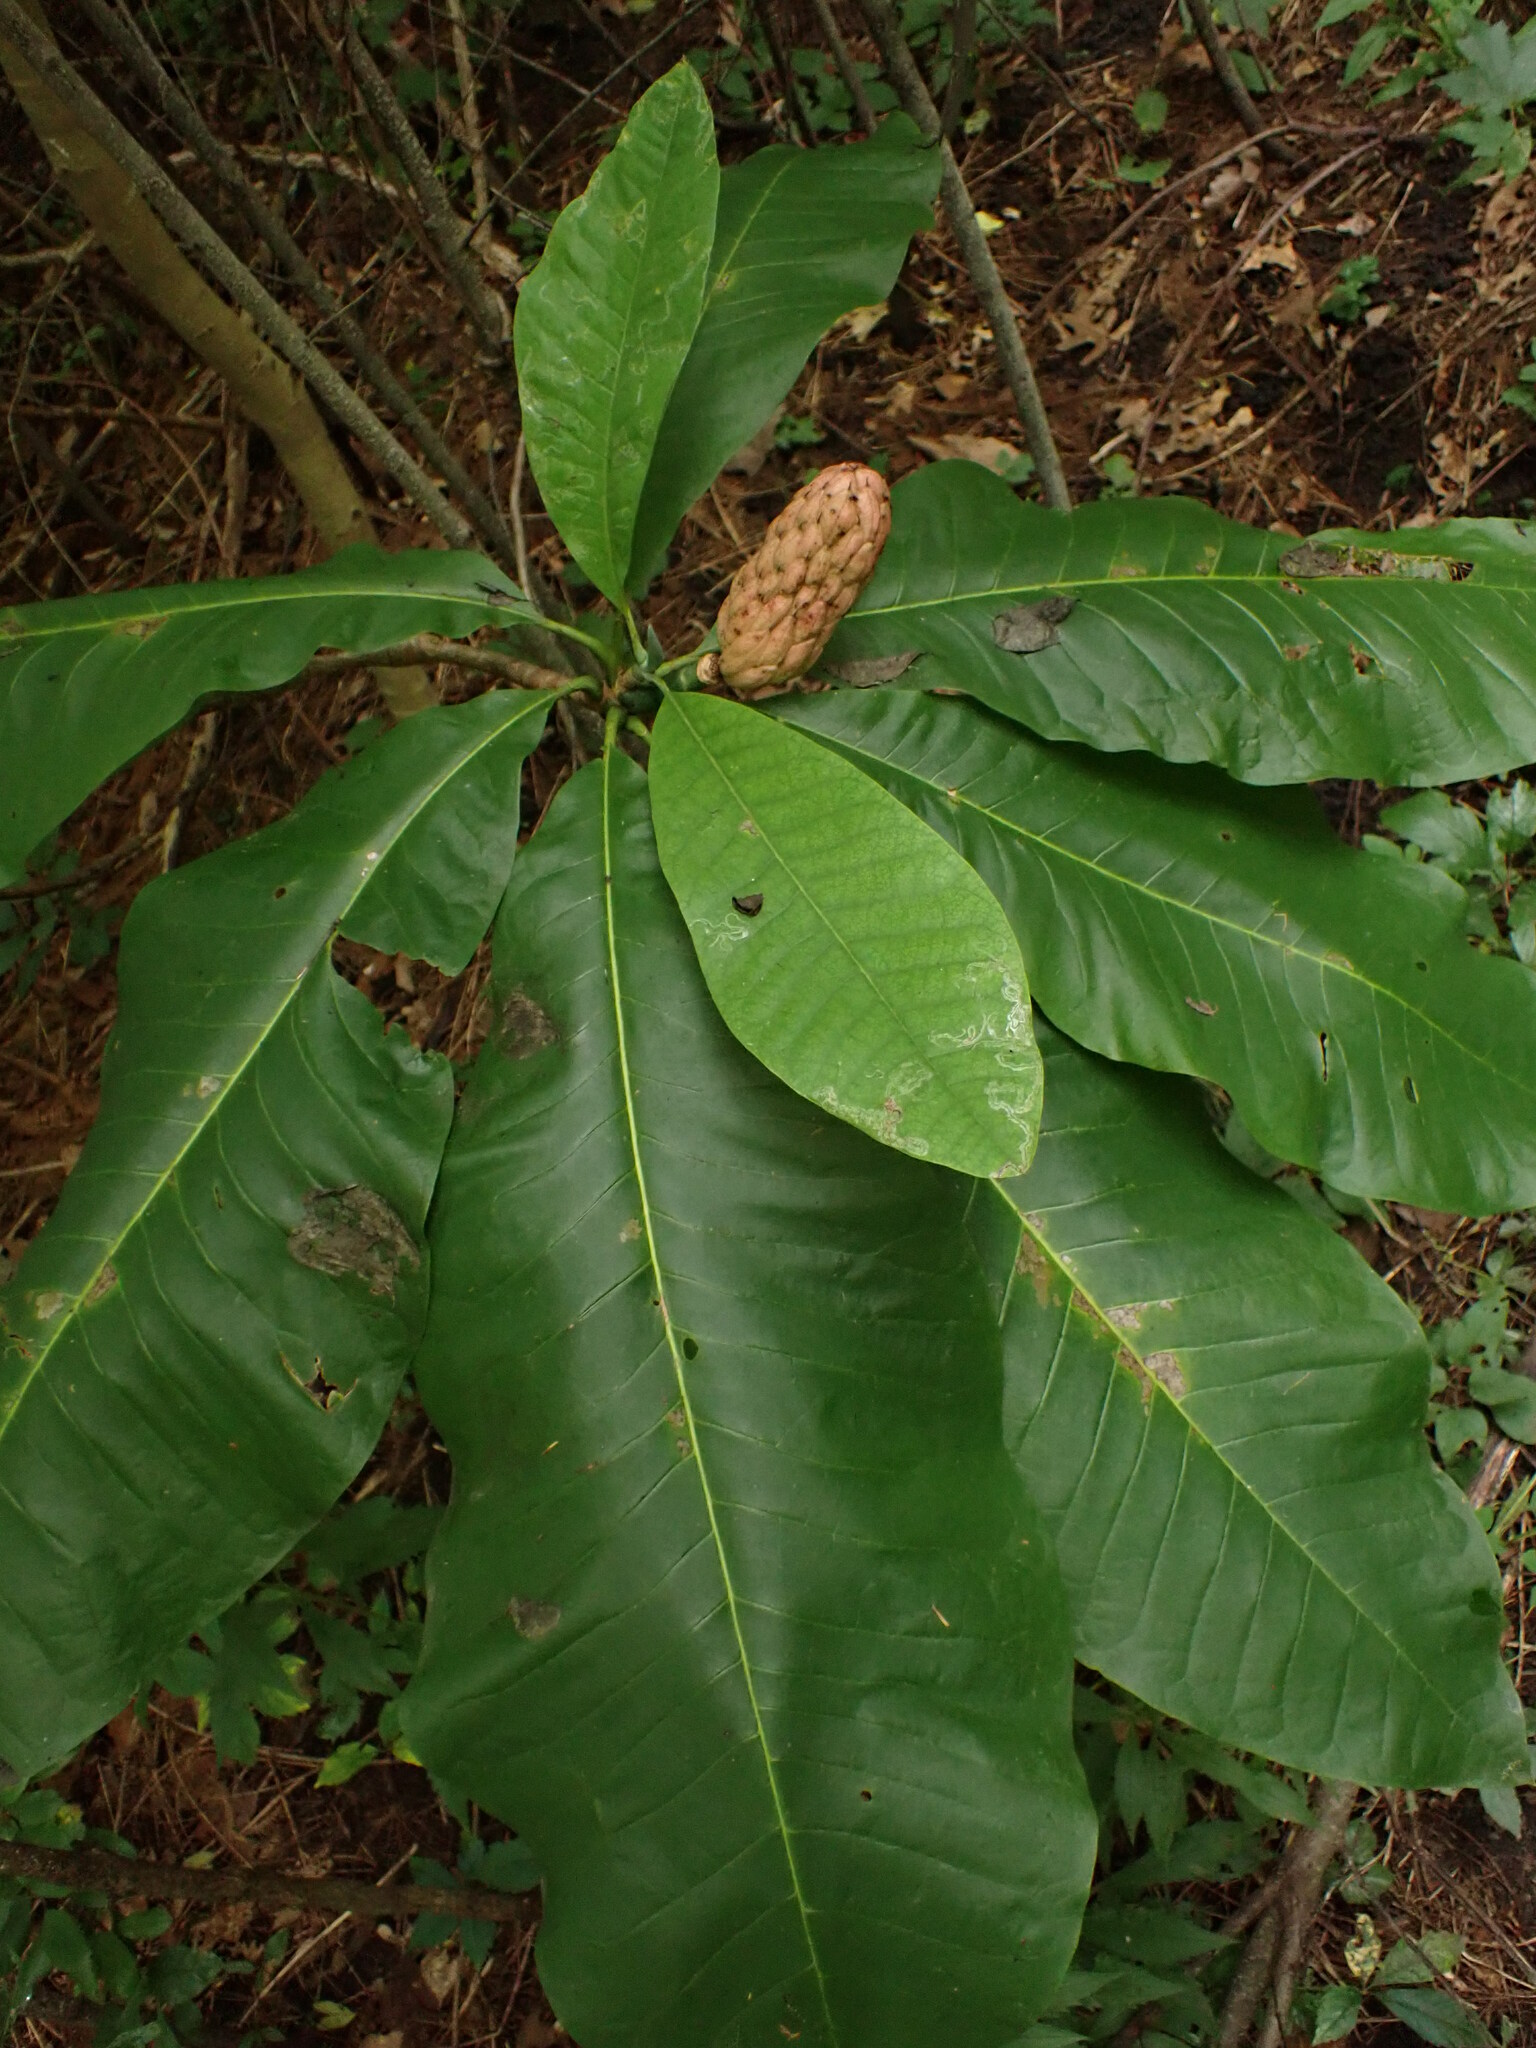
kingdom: Plantae
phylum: Tracheophyta
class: Magnoliopsida
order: Magnoliales
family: Magnoliaceae
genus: Magnolia
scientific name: Magnolia tripetala
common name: Umbrella magnolia
